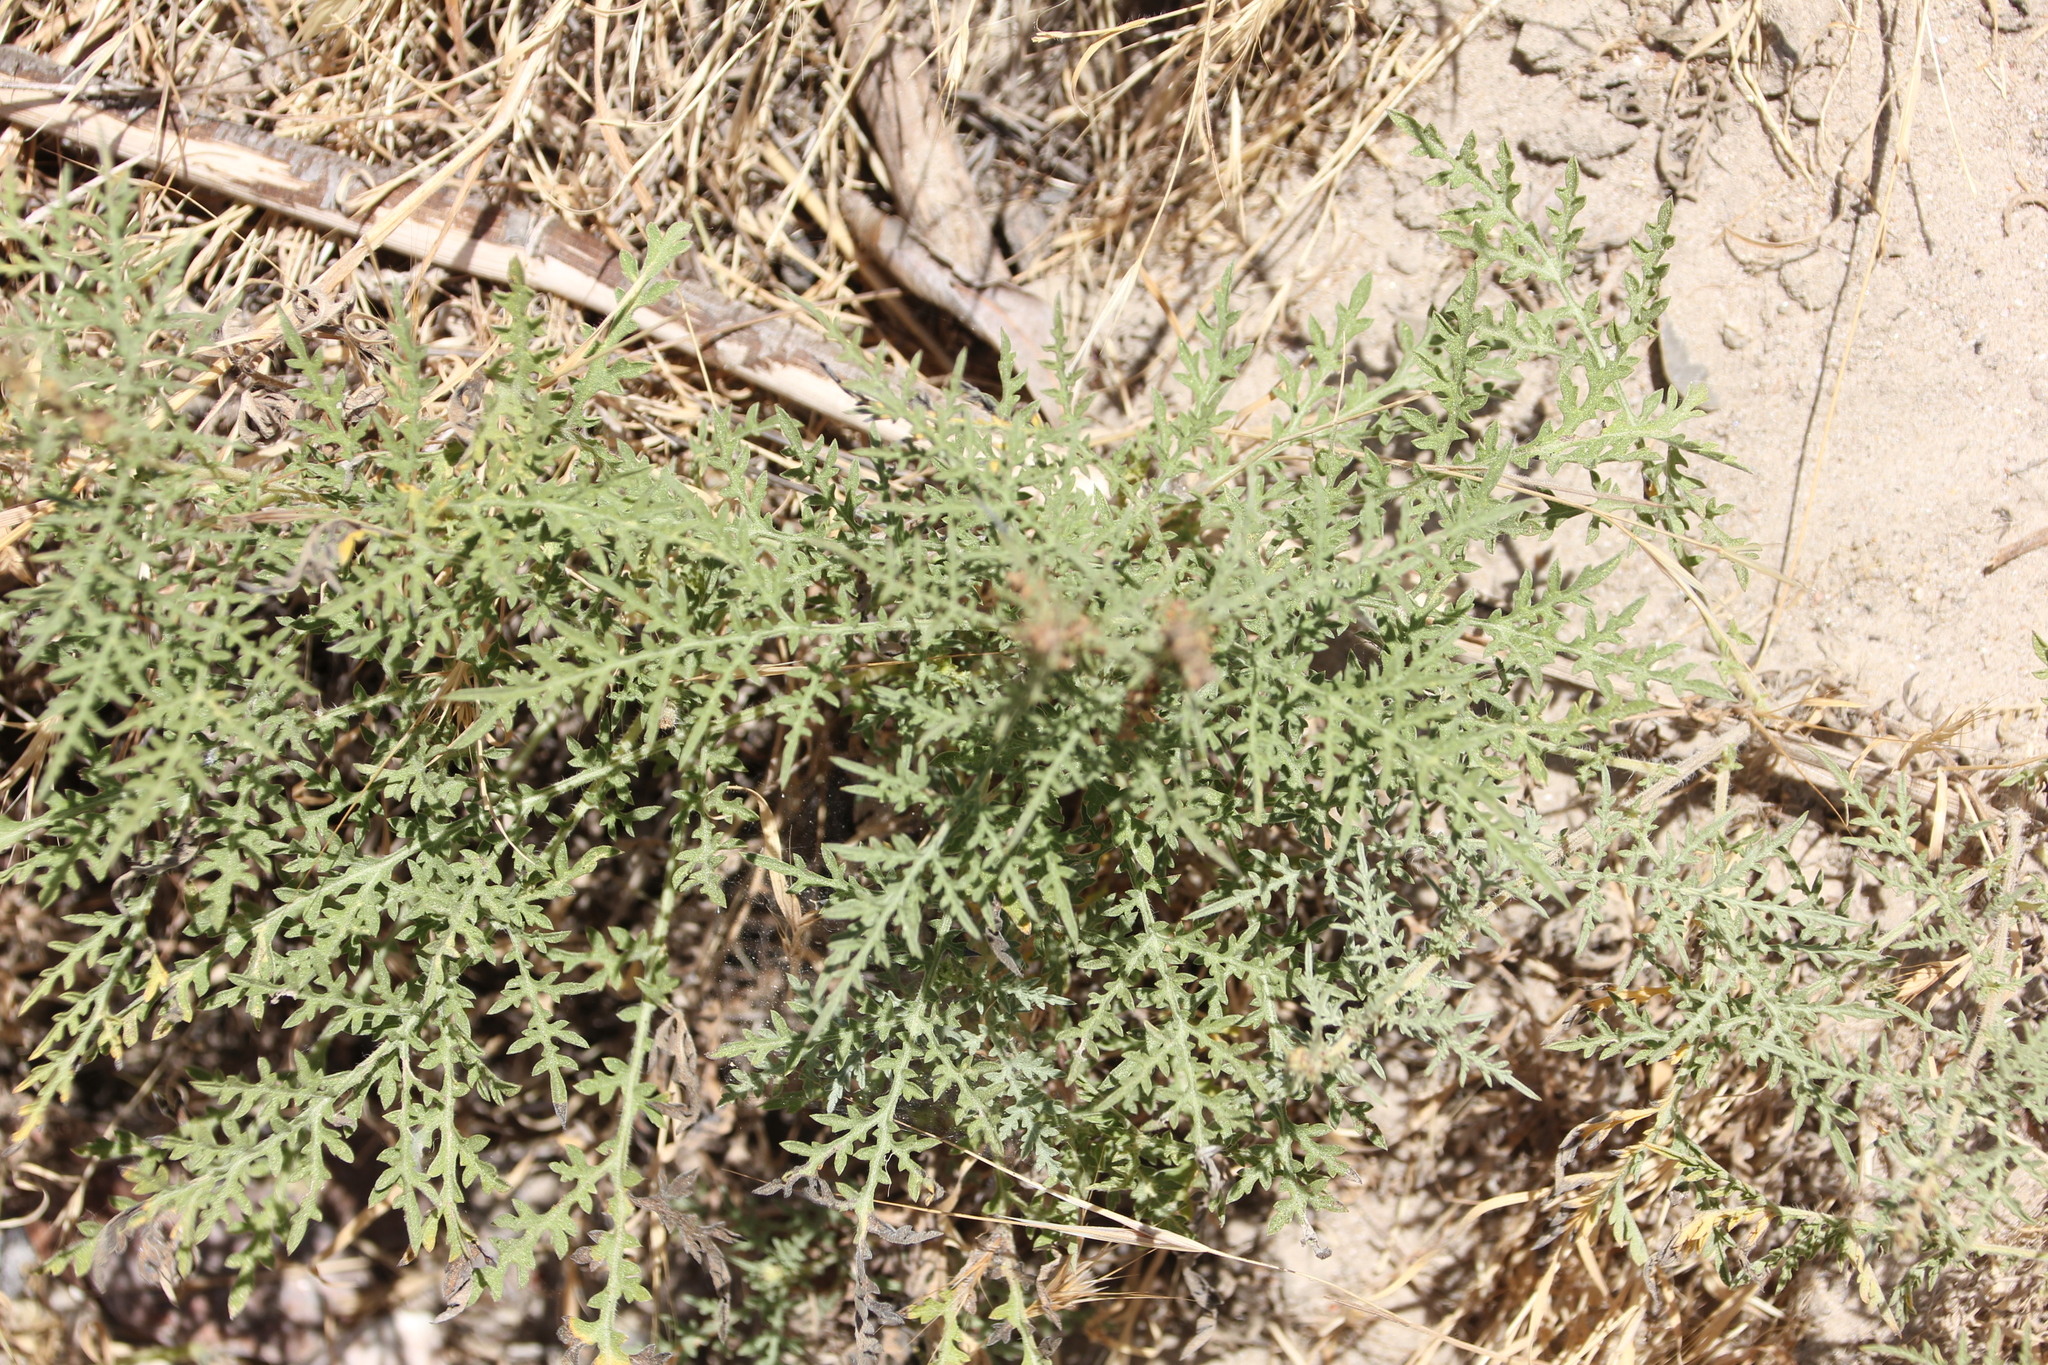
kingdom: Plantae
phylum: Tracheophyta
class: Magnoliopsida
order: Asterales
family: Asteraceae
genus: Ambrosia
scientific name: Ambrosia confertiflora
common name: Bur ragweed
